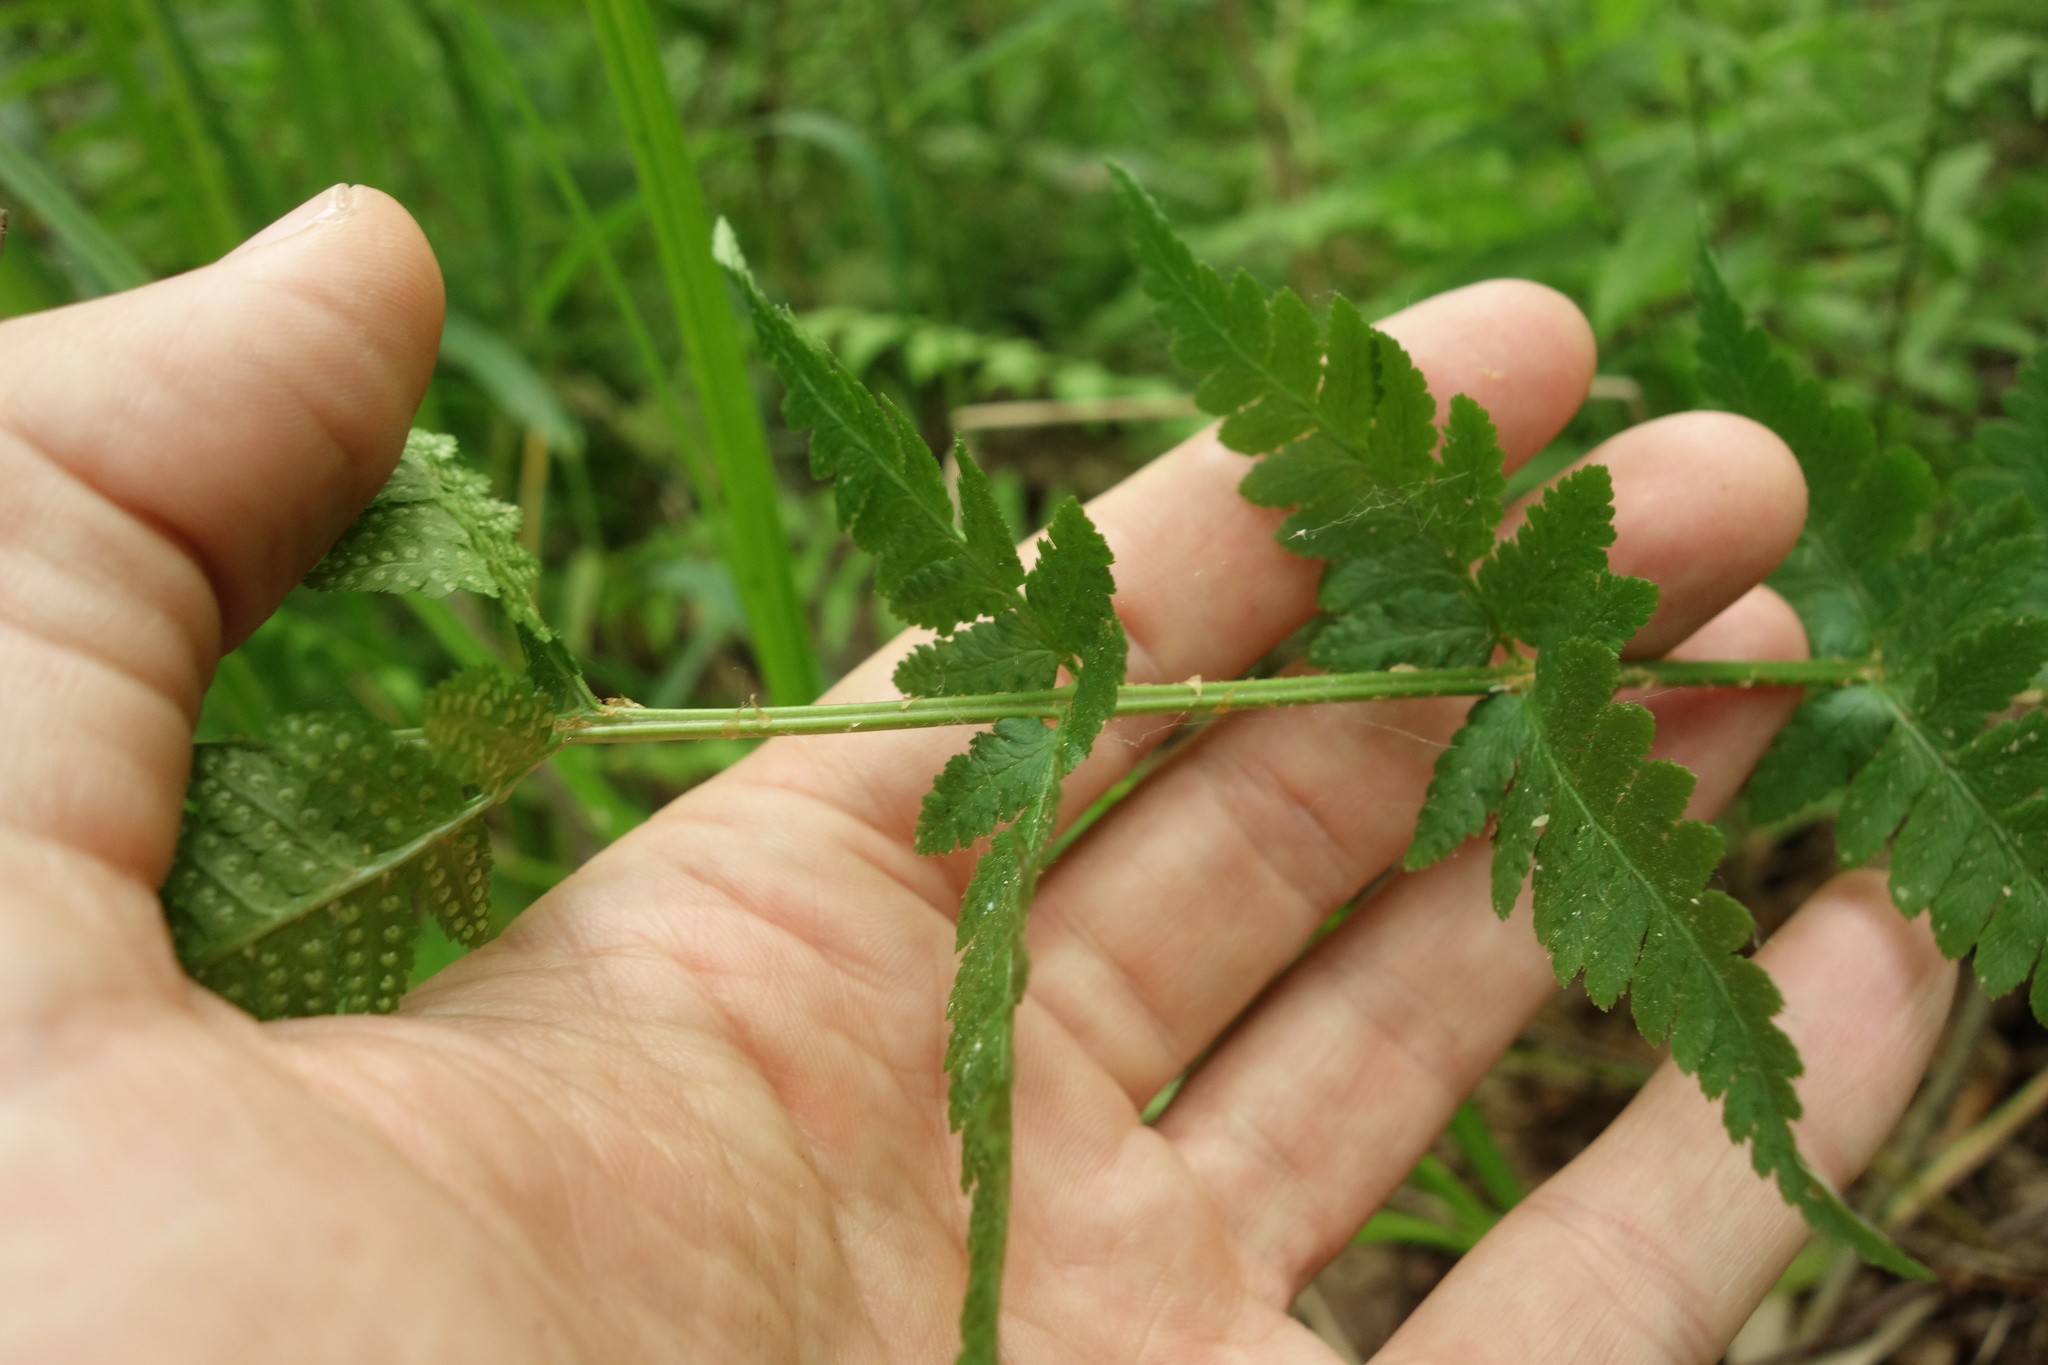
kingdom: Plantae
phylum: Tracheophyta
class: Polypodiopsida
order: Polypodiales
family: Dryopteridaceae
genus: Dryopteris
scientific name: Dryopteris carthusiana
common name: Narrow buckler-fern
